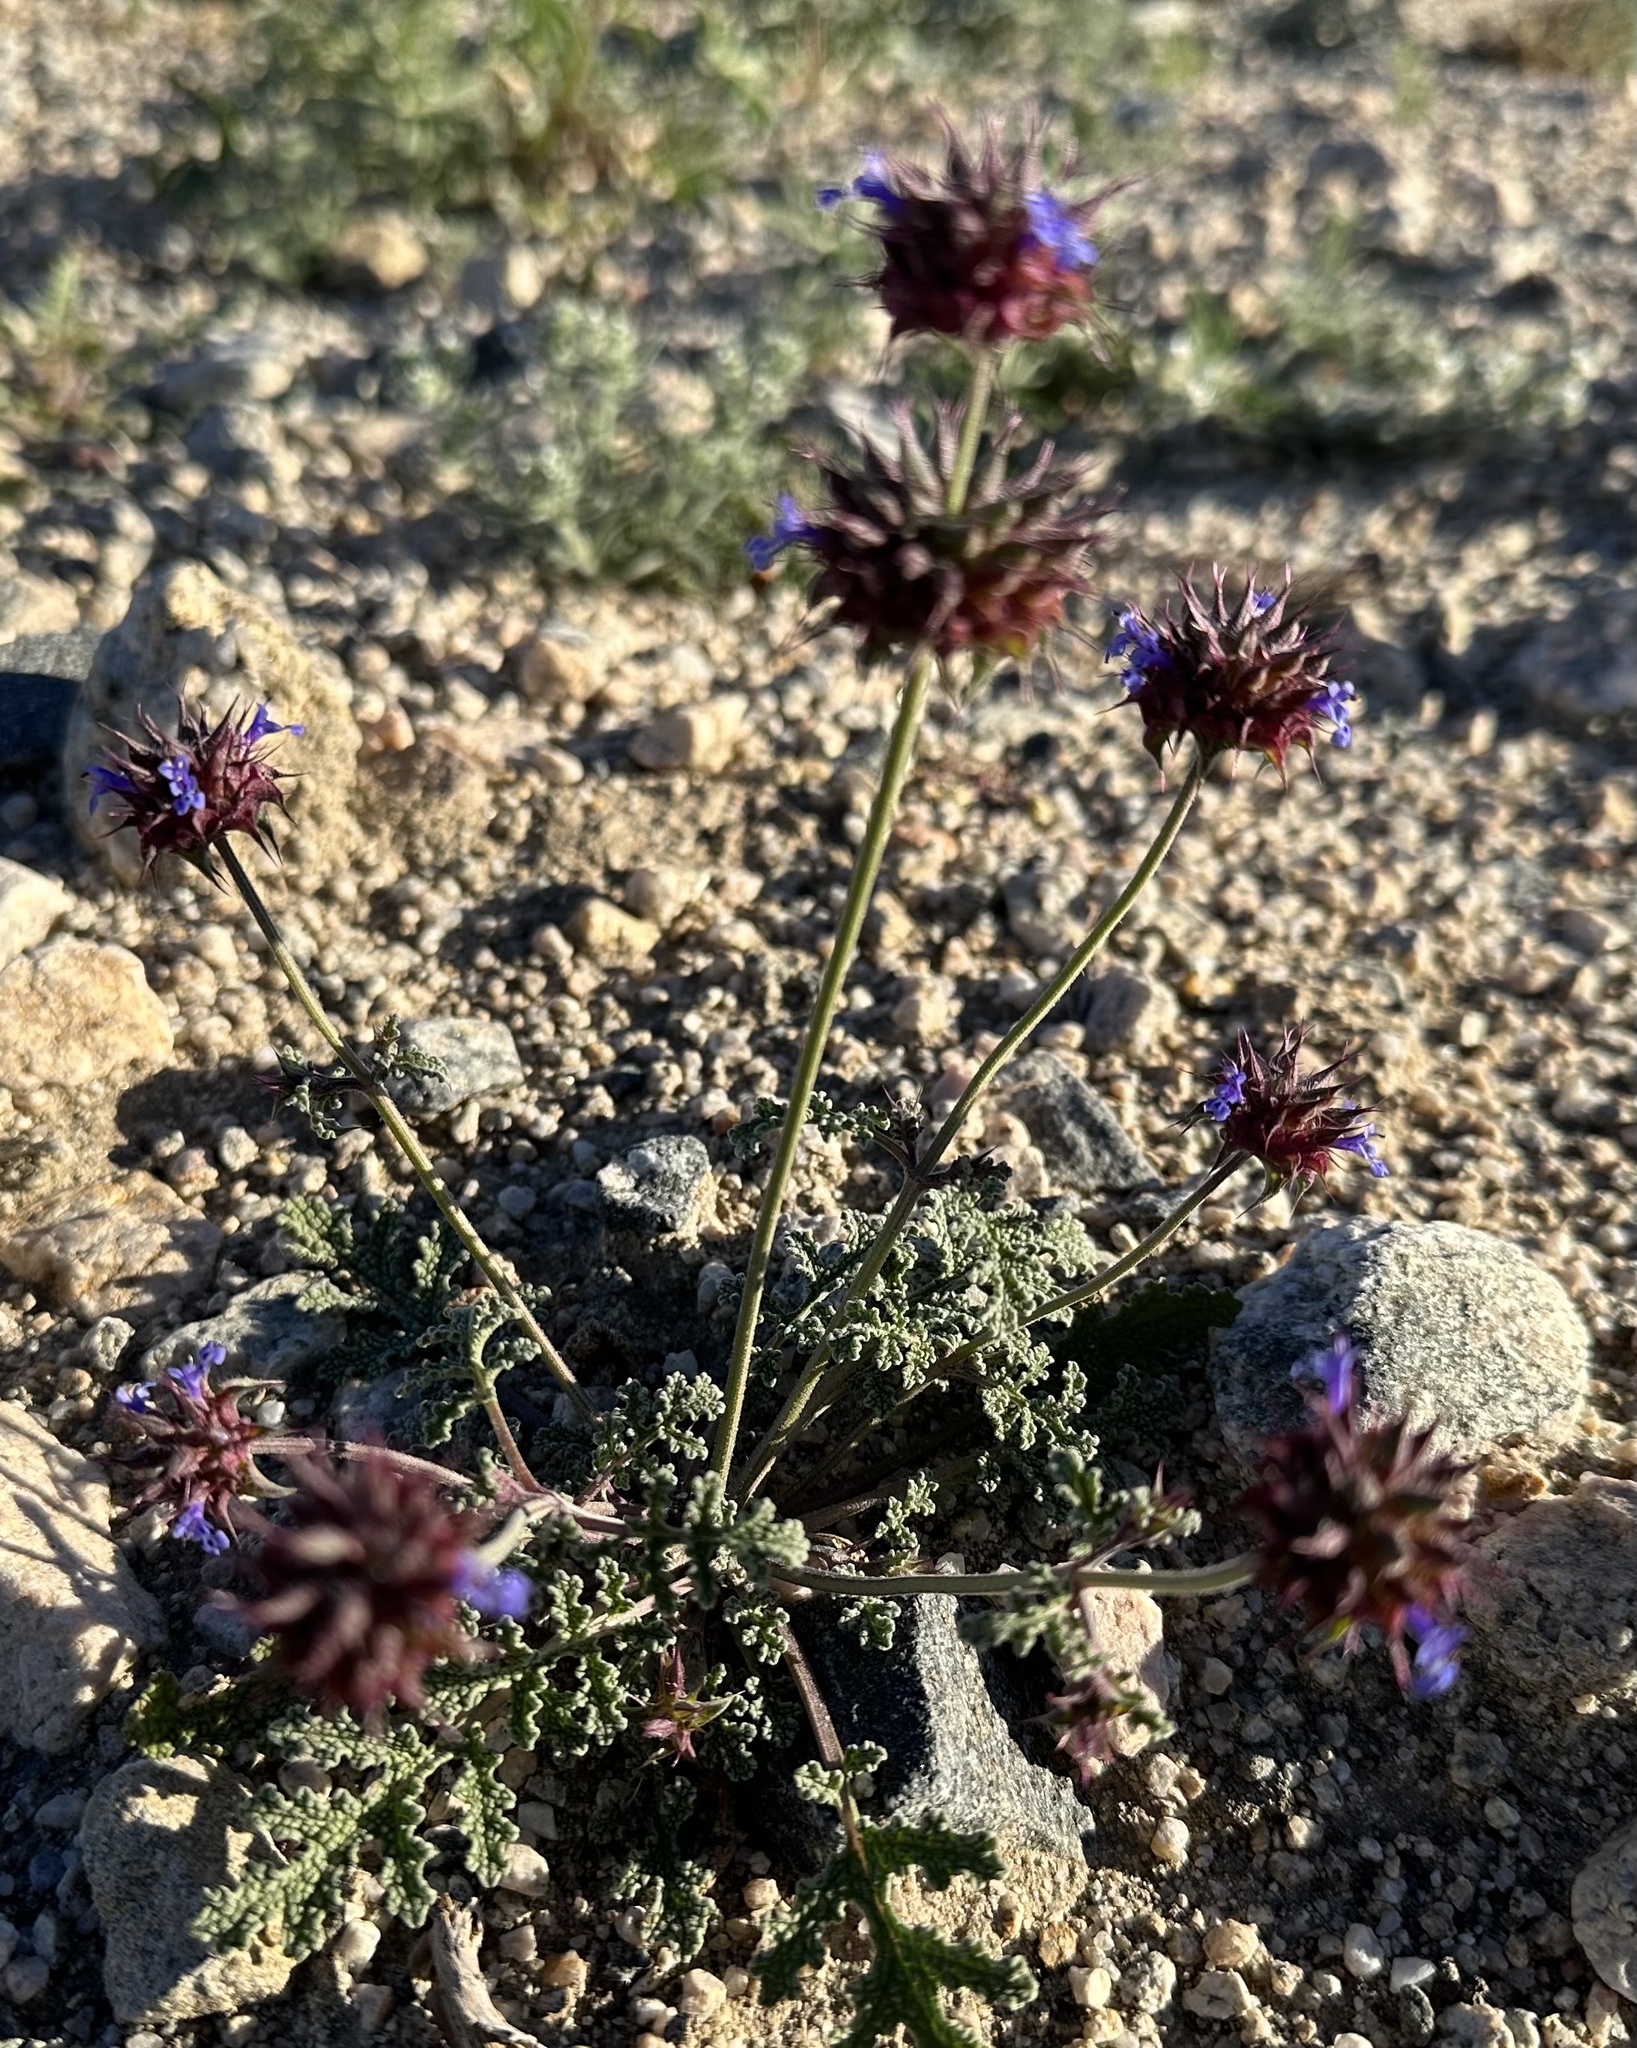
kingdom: Plantae
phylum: Tracheophyta
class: Magnoliopsida
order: Lamiales
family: Lamiaceae
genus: Salvia
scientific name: Salvia columbariae
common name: Chia
